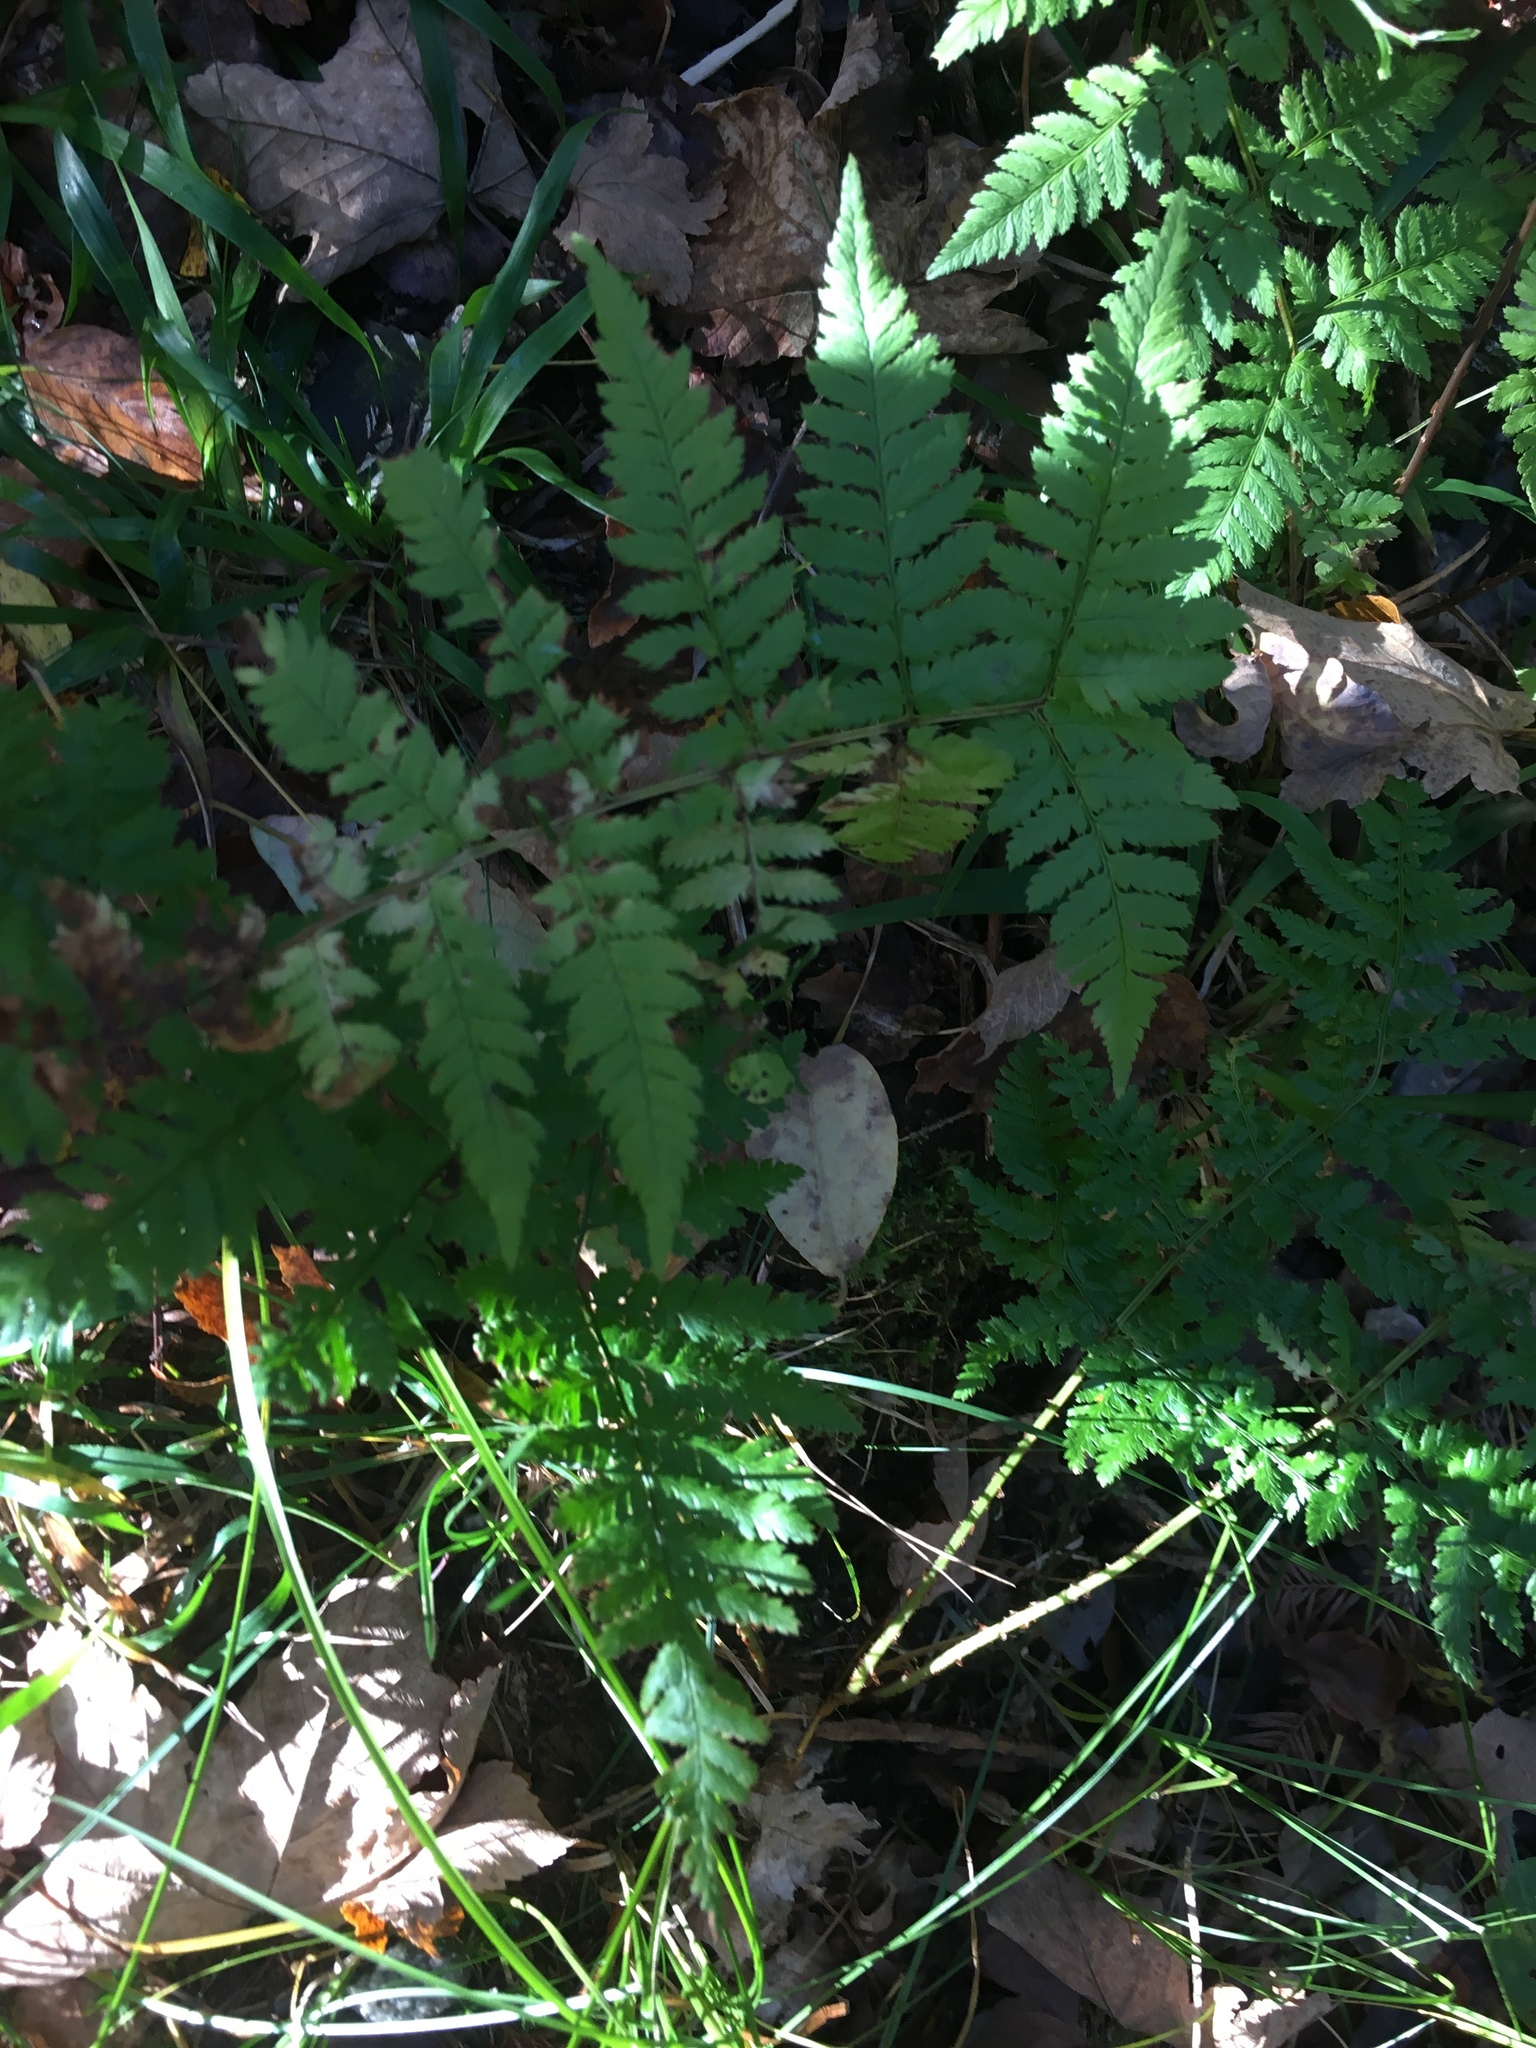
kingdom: Plantae
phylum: Tracheophyta
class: Polypodiopsida
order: Polypodiales
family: Dryopteridaceae
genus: Dryopteris
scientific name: Dryopteris carthusiana
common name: Narrow buckler-fern
